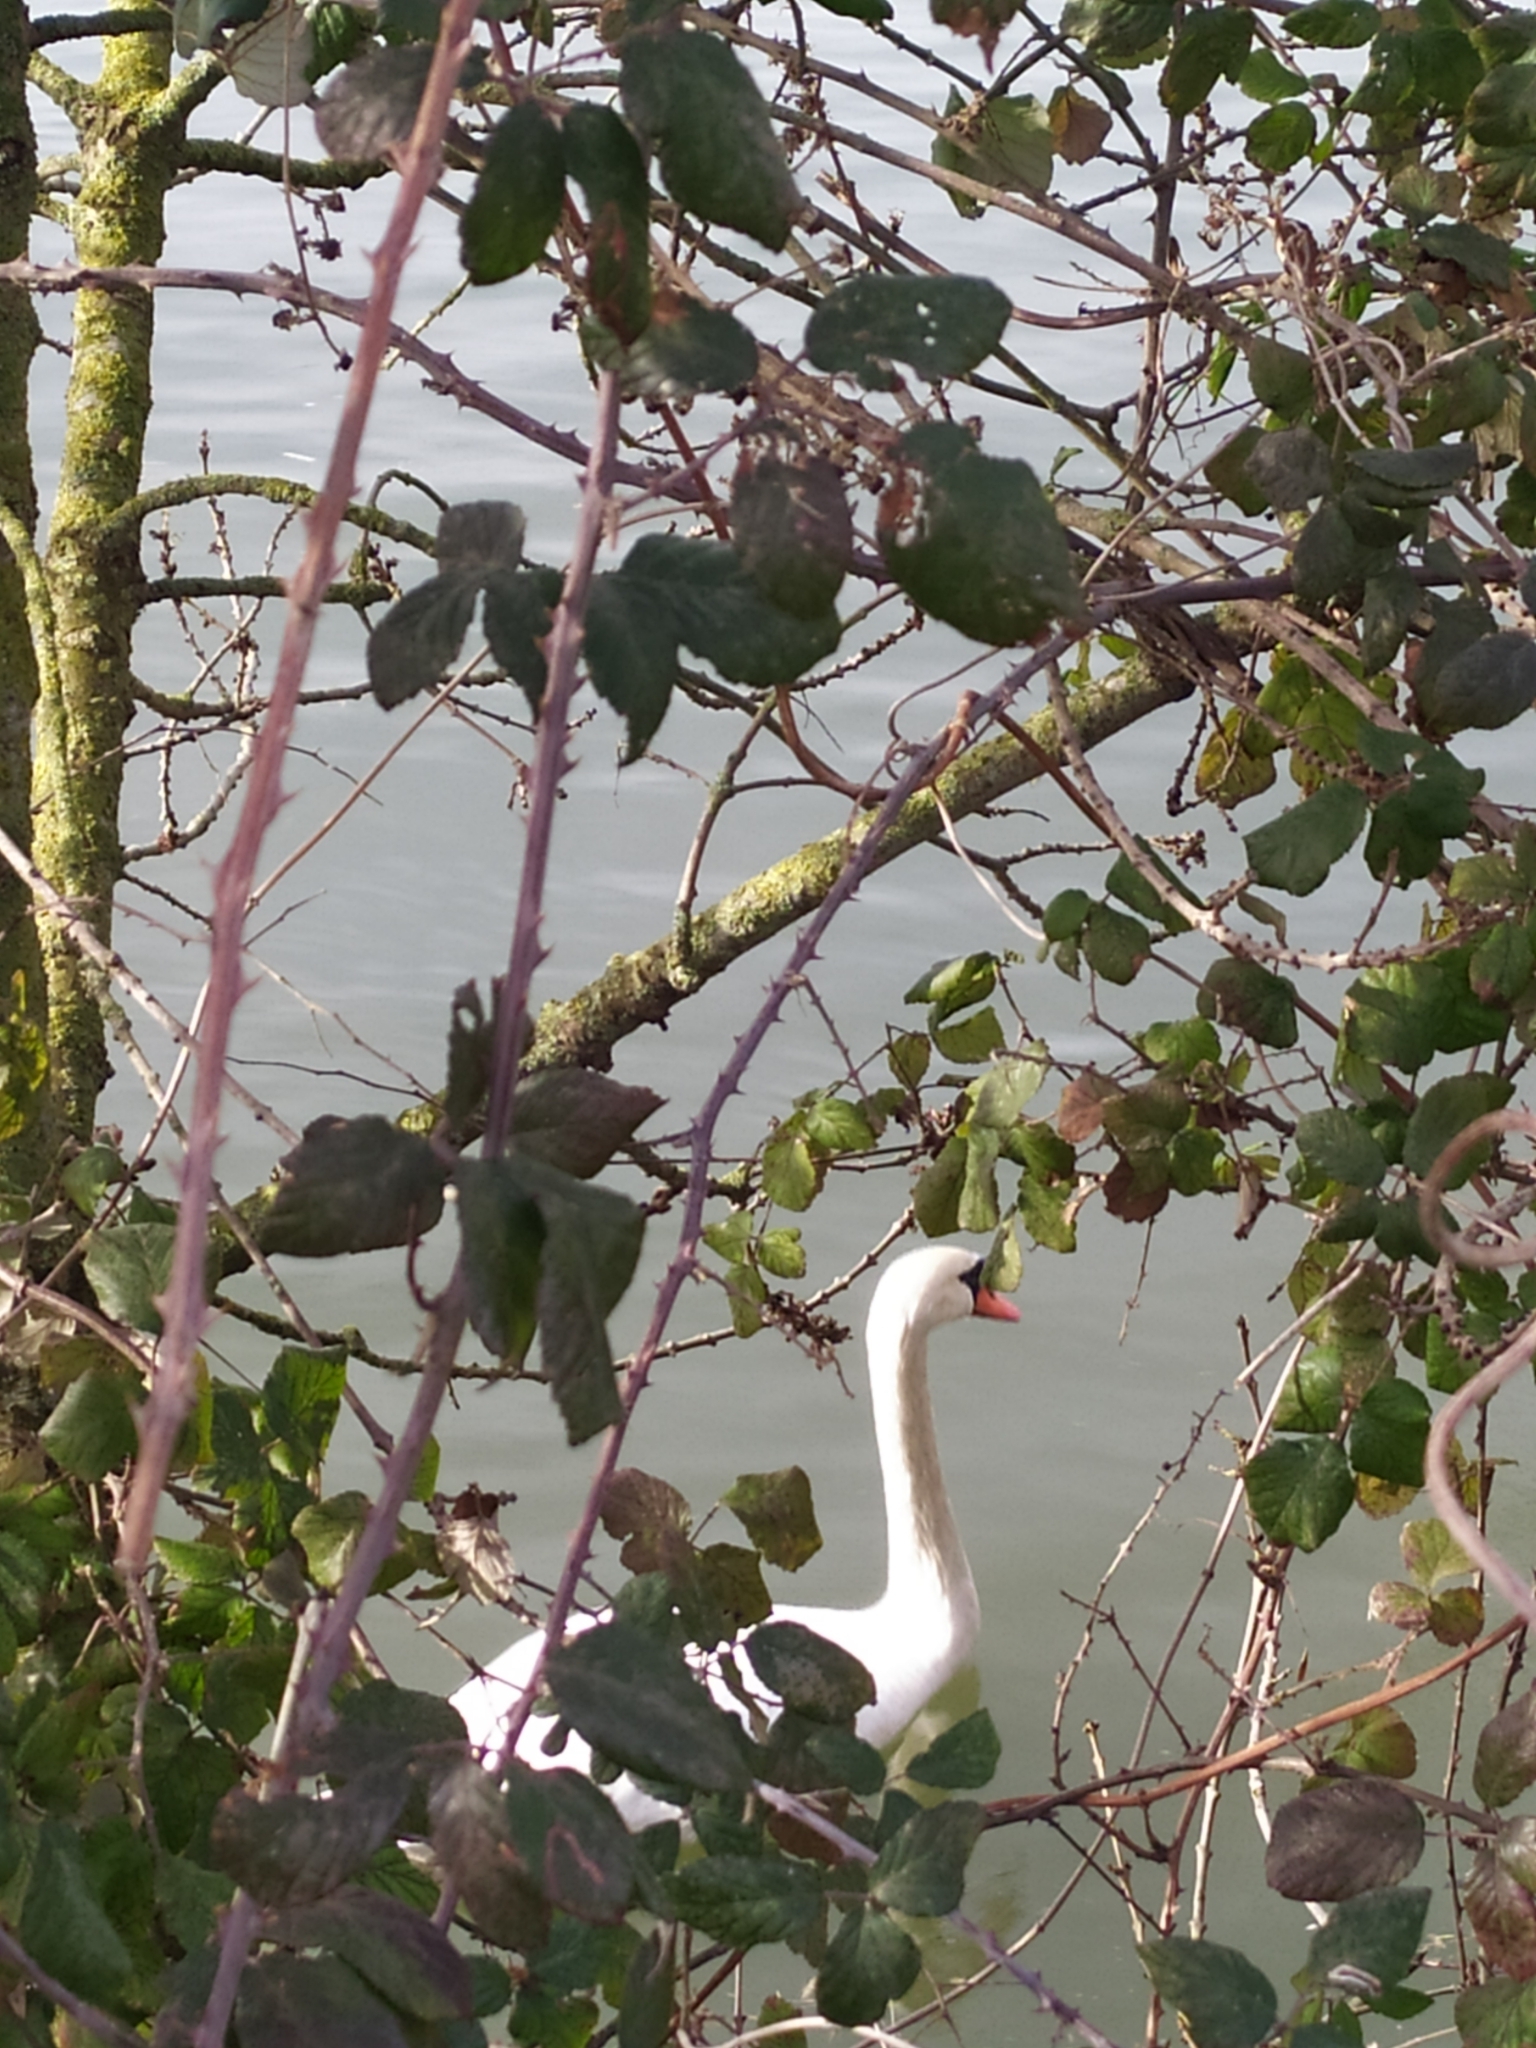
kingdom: Animalia
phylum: Chordata
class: Aves
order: Anseriformes
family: Anatidae
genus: Cygnus
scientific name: Cygnus olor
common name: Mute swan
